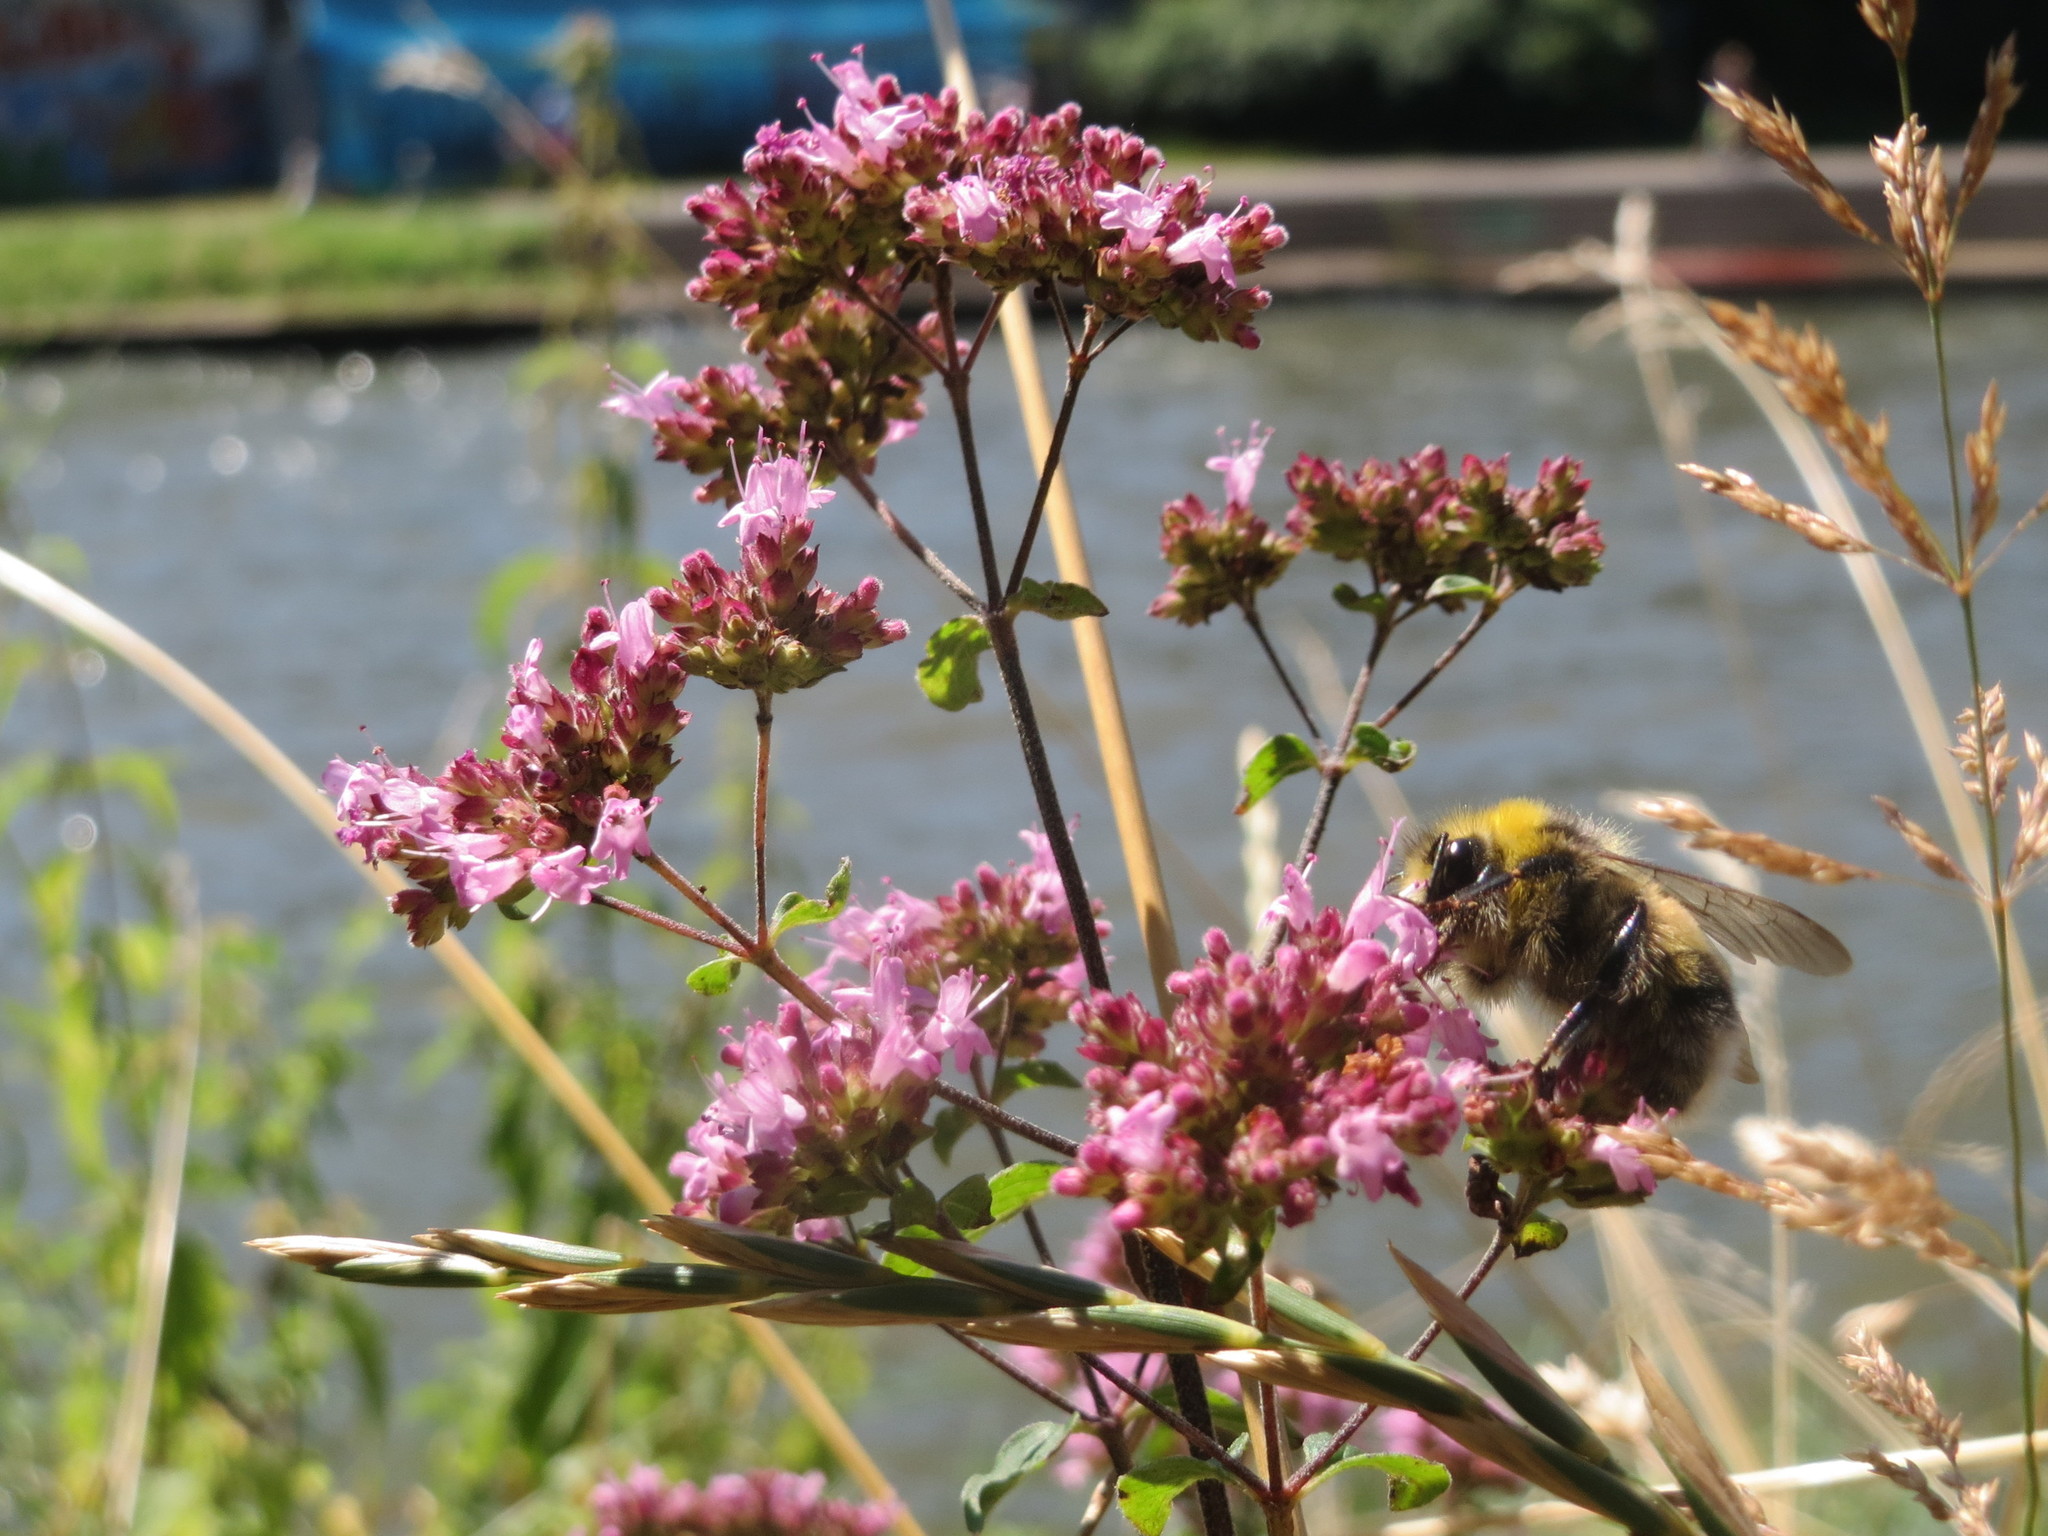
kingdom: Plantae
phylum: Tracheophyta
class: Magnoliopsida
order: Lamiales
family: Lamiaceae
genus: Origanum
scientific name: Origanum vulgare
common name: Wild marjoram
